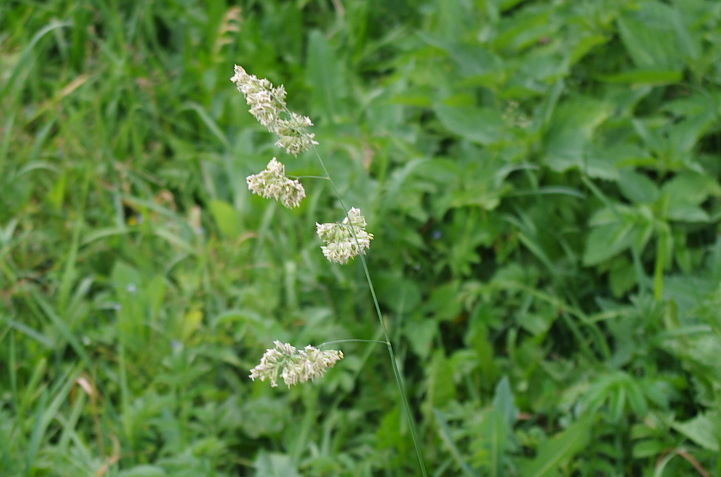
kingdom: Plantae
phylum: Tracheophyta
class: Liliopsida
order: Poales
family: Poaceae
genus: Dactylis
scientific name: Dactylis glomerata
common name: Orchardgrass
